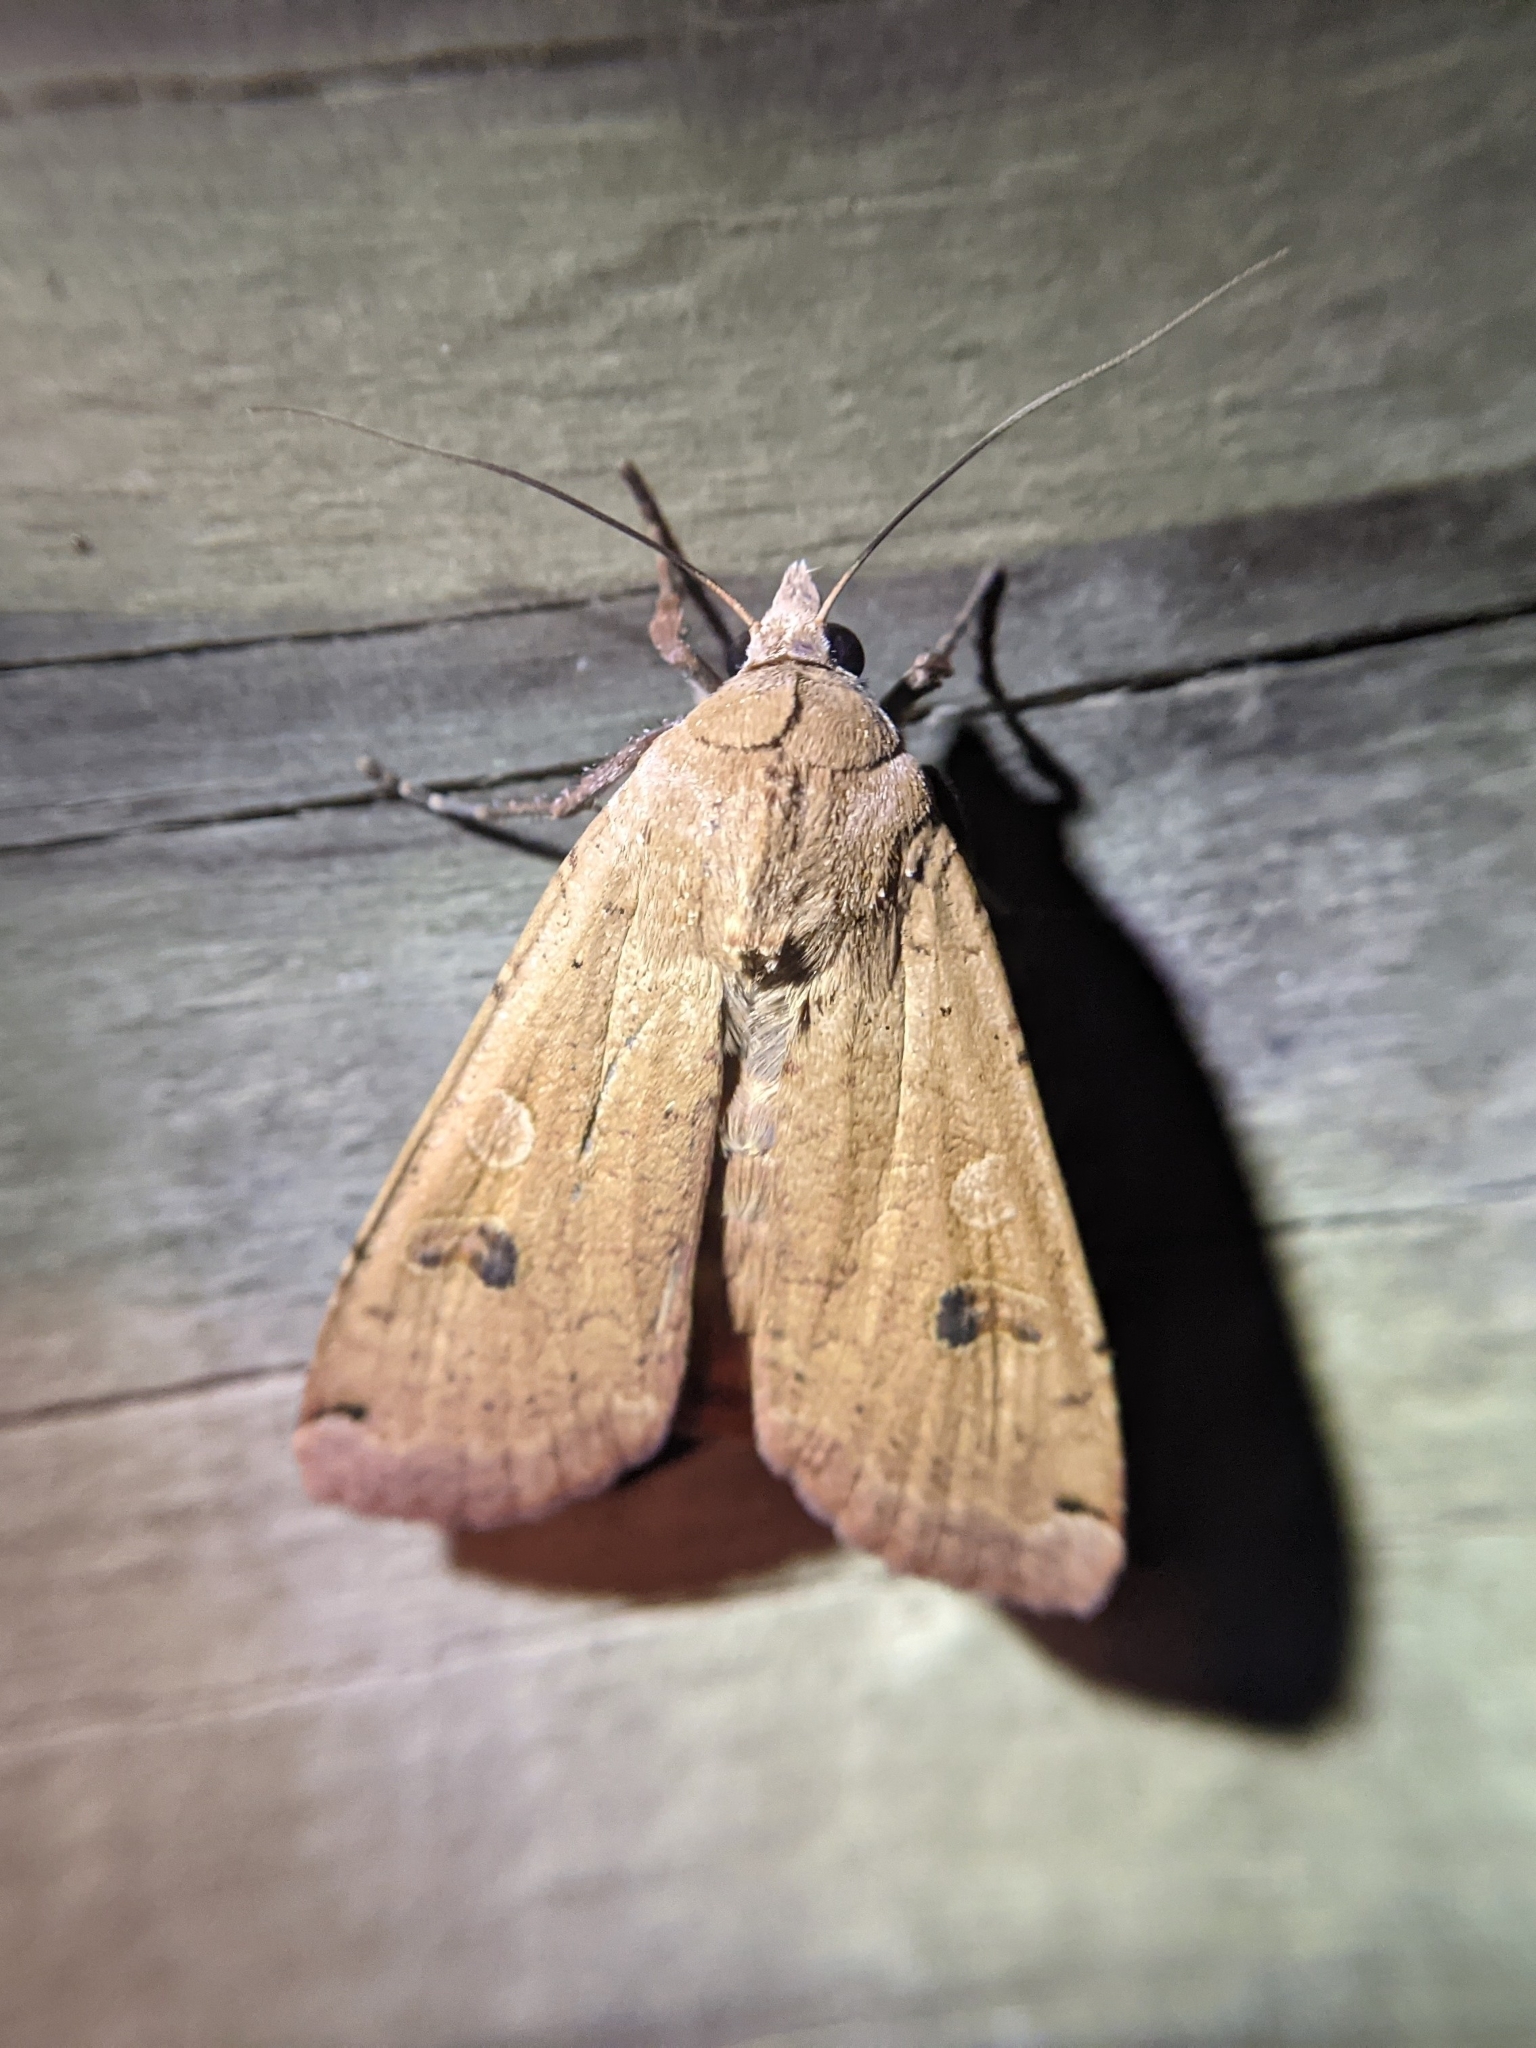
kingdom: Animalia
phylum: Arthropoda
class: Insecta
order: Lepidoptera
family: Noctuidae
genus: Noctua
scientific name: Noctua pronuba
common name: Large yellow underwing
